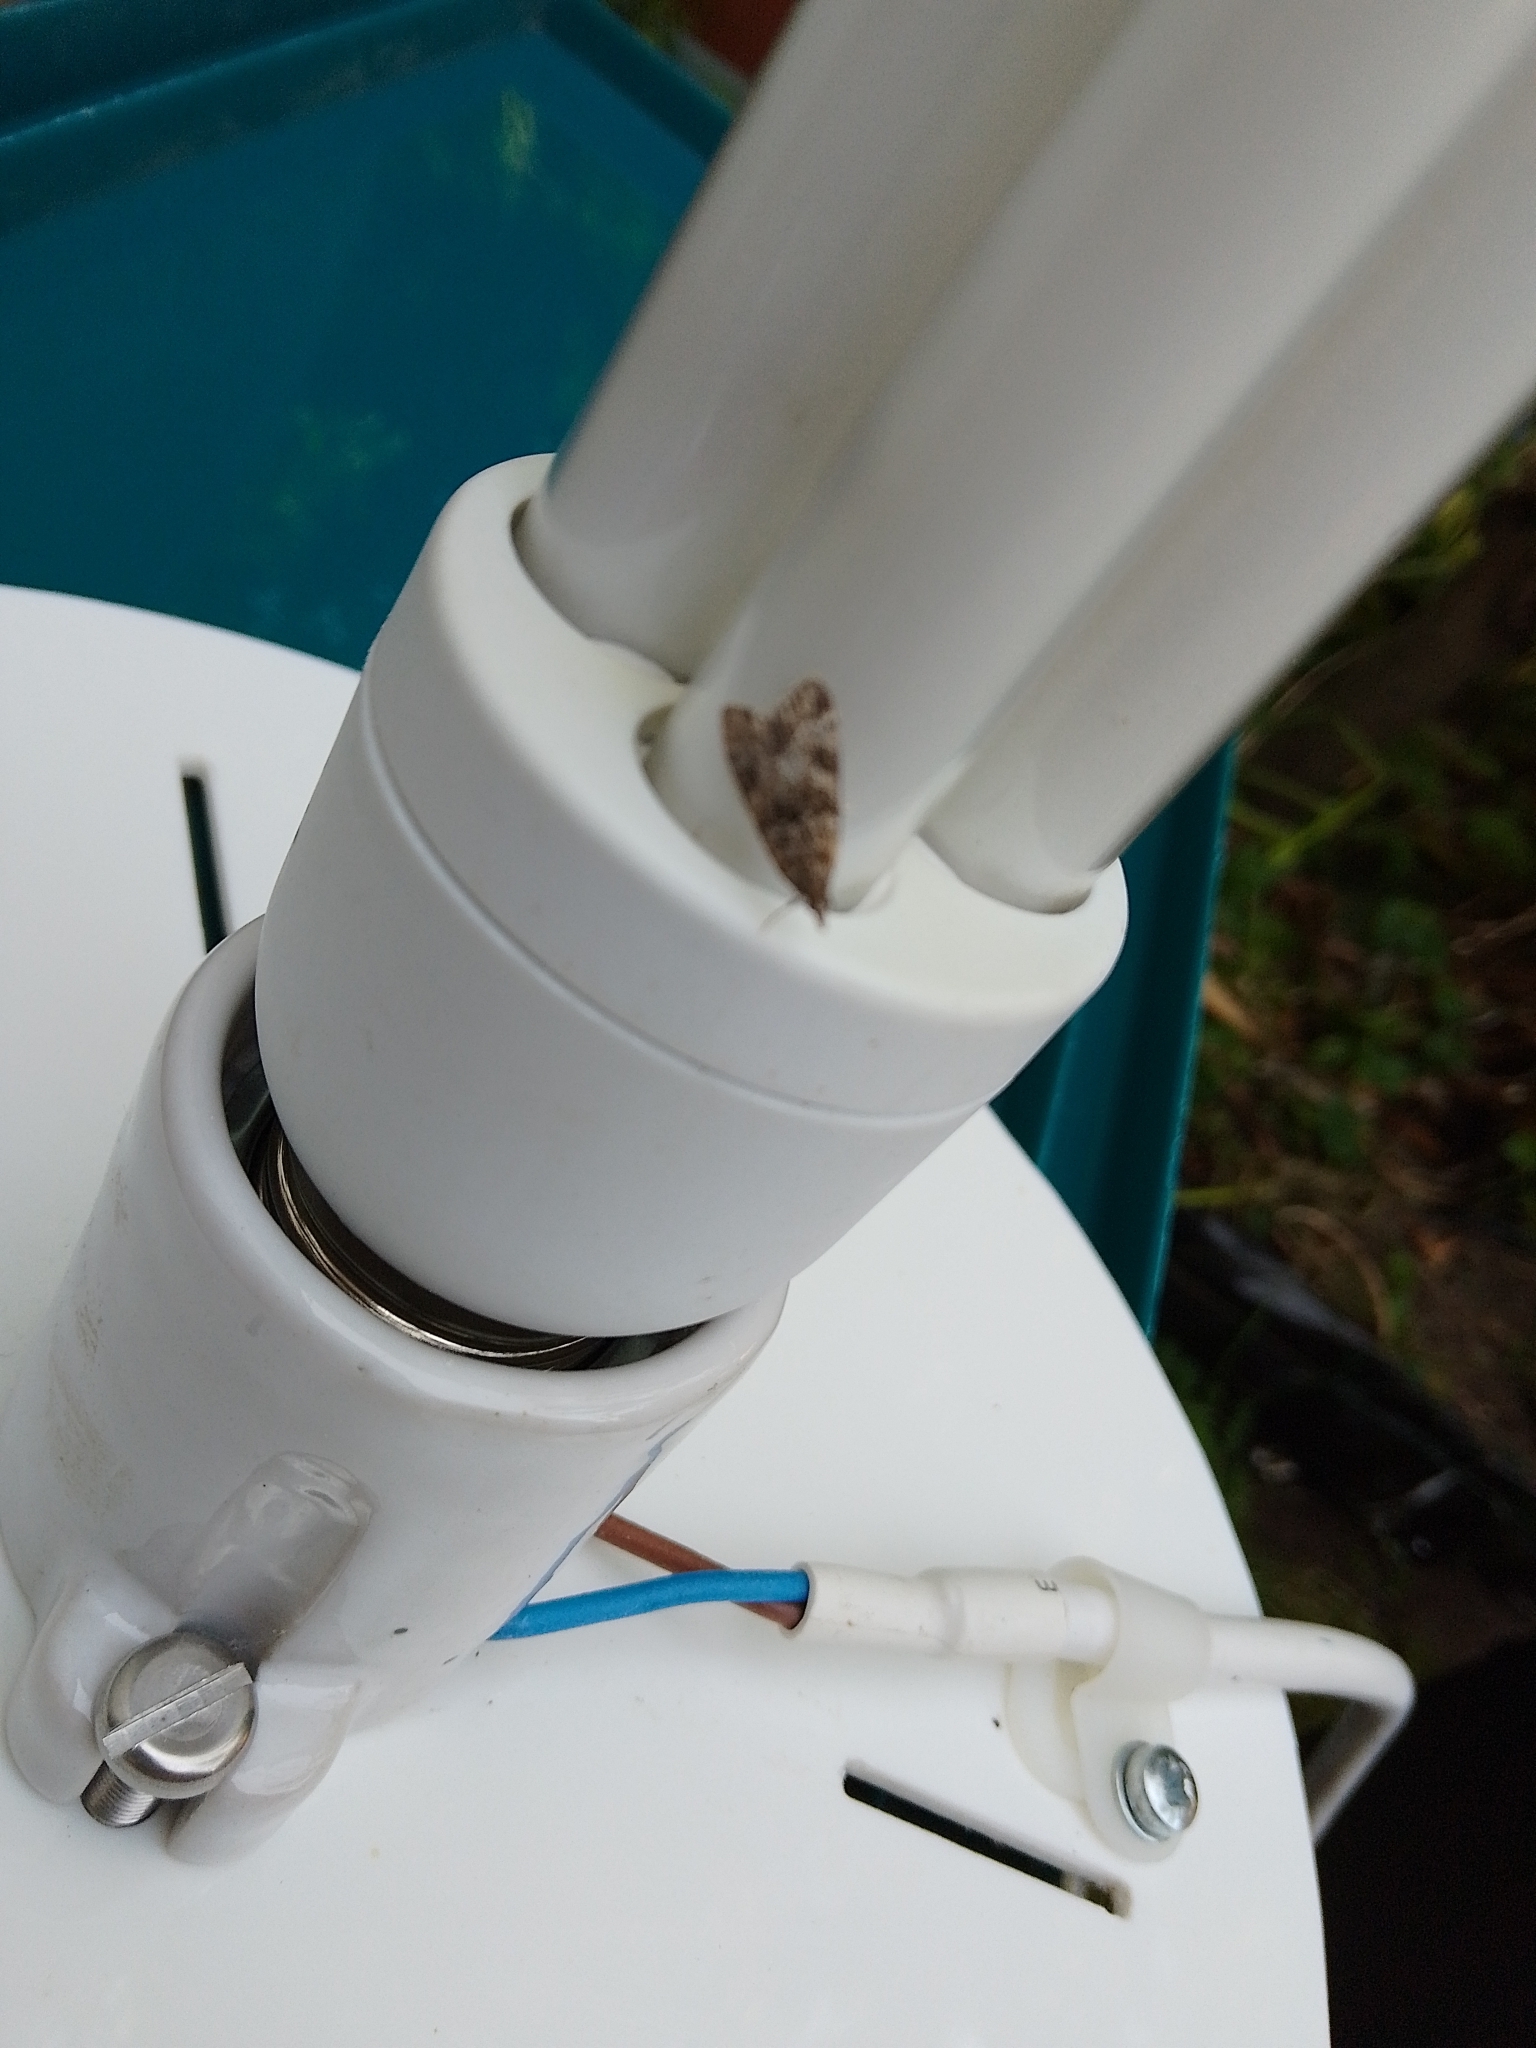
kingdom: Animalia
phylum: Arthropoda
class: Insecta
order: Lepidoptera
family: Crambidae
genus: Eudonia
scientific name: Eudonia lacustrata
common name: Little grey
